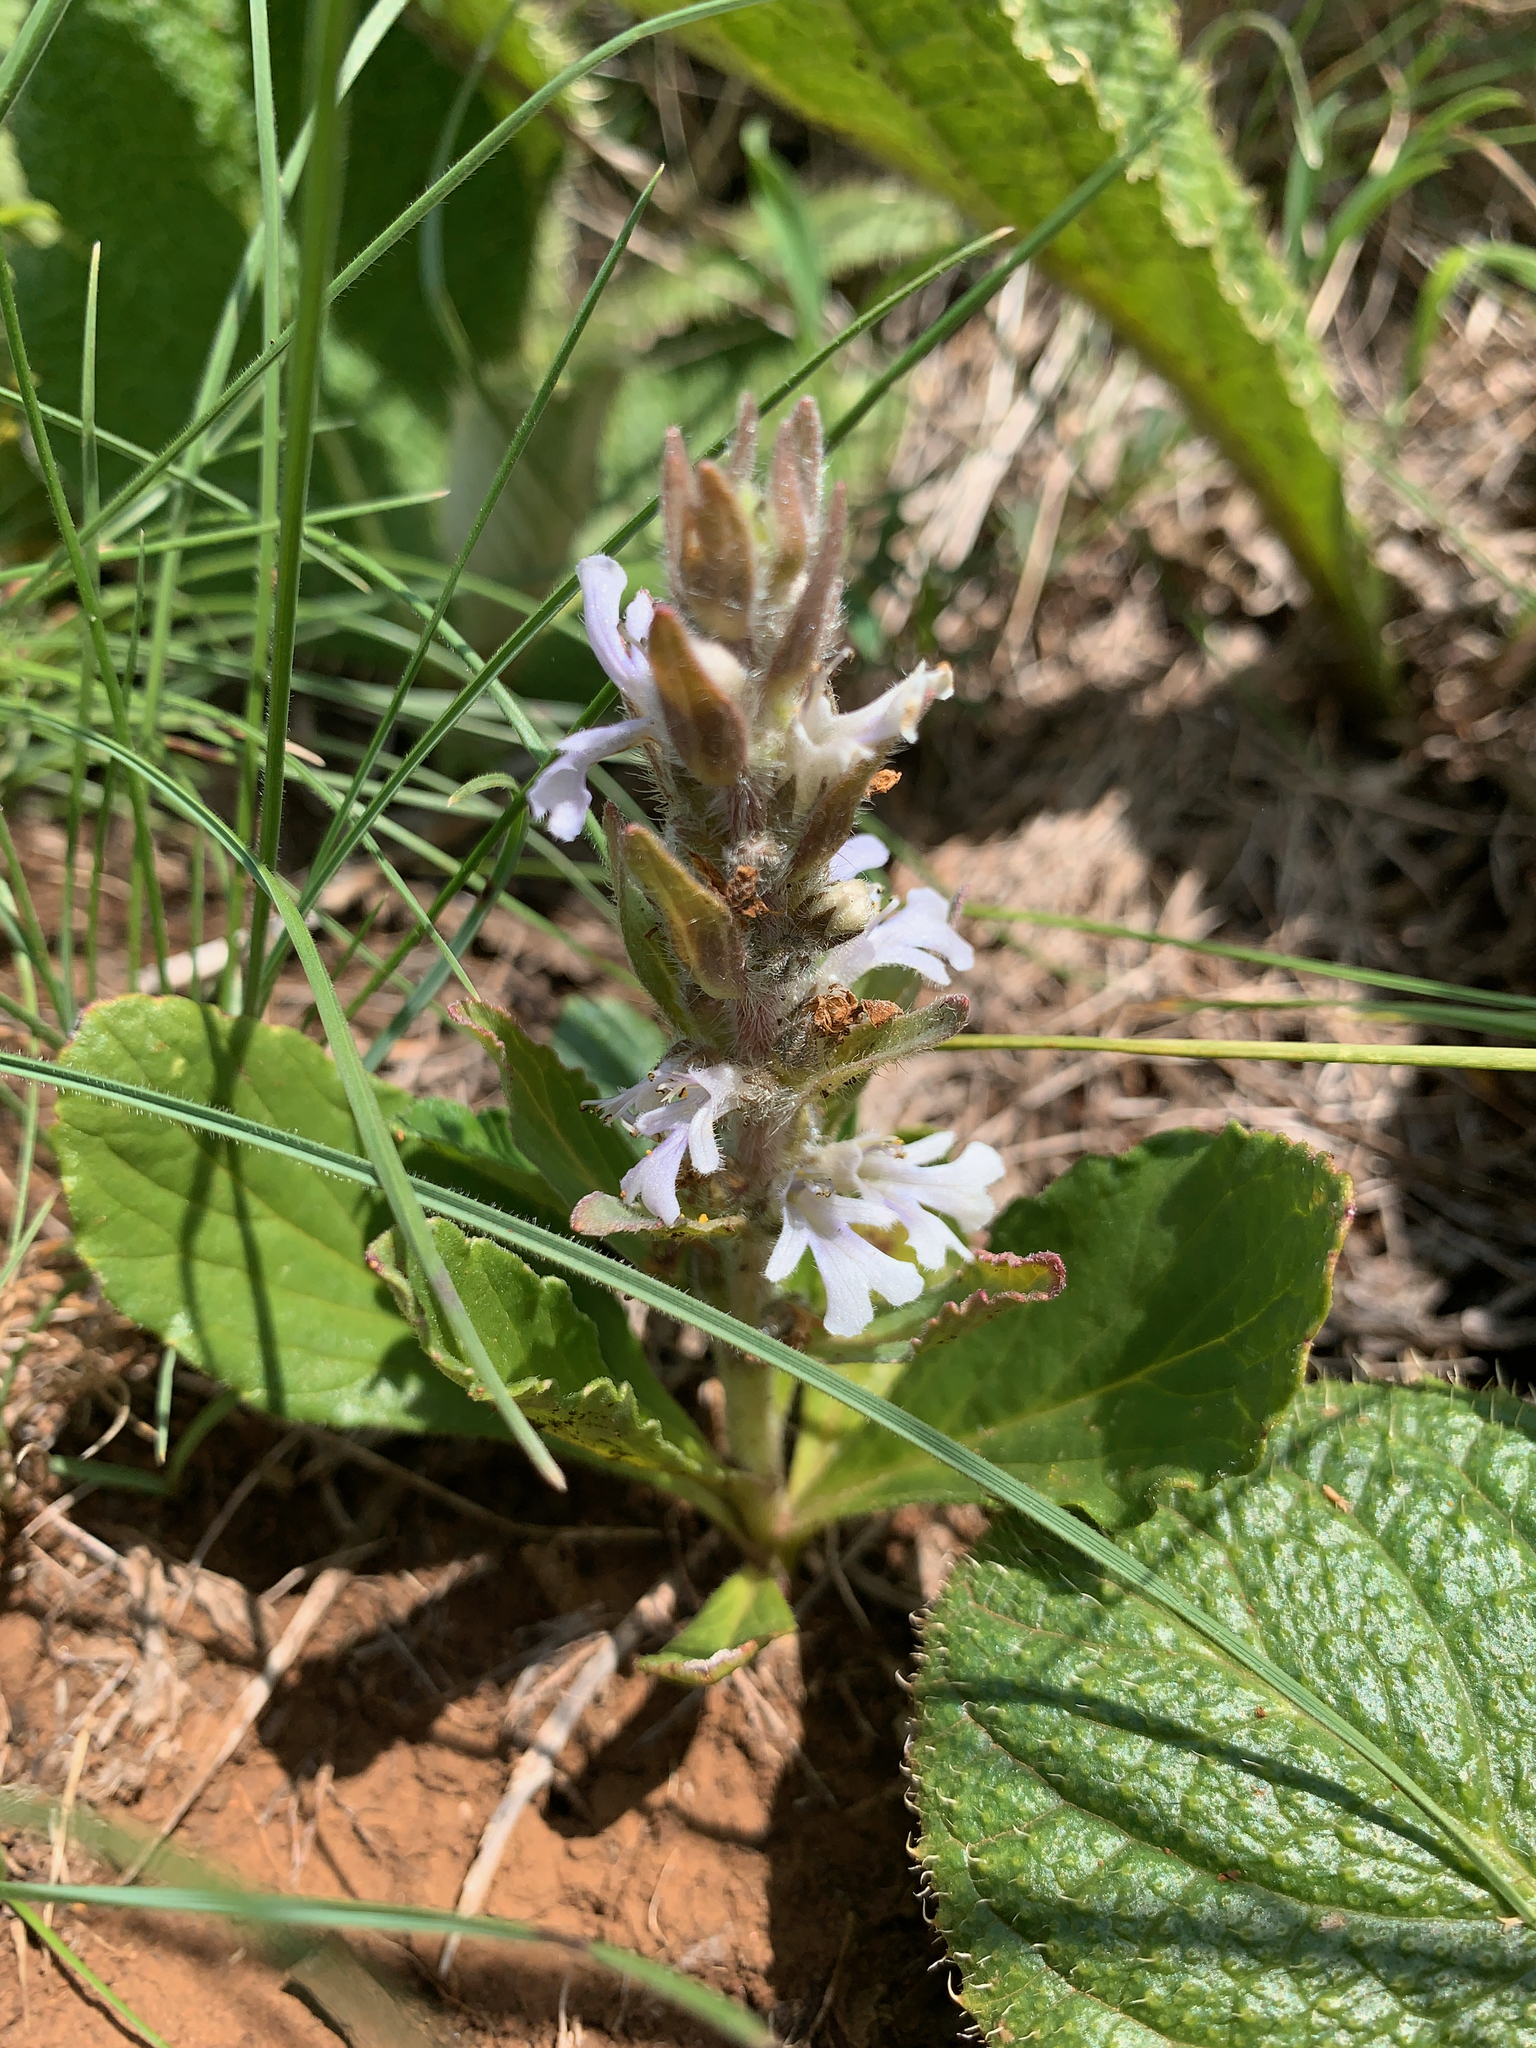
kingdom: Plantae
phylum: Tracheophyta
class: Magnoliopsida
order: Lamiales
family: Lamiaceae
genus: Ajuga
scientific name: Ajuga ophrydis
